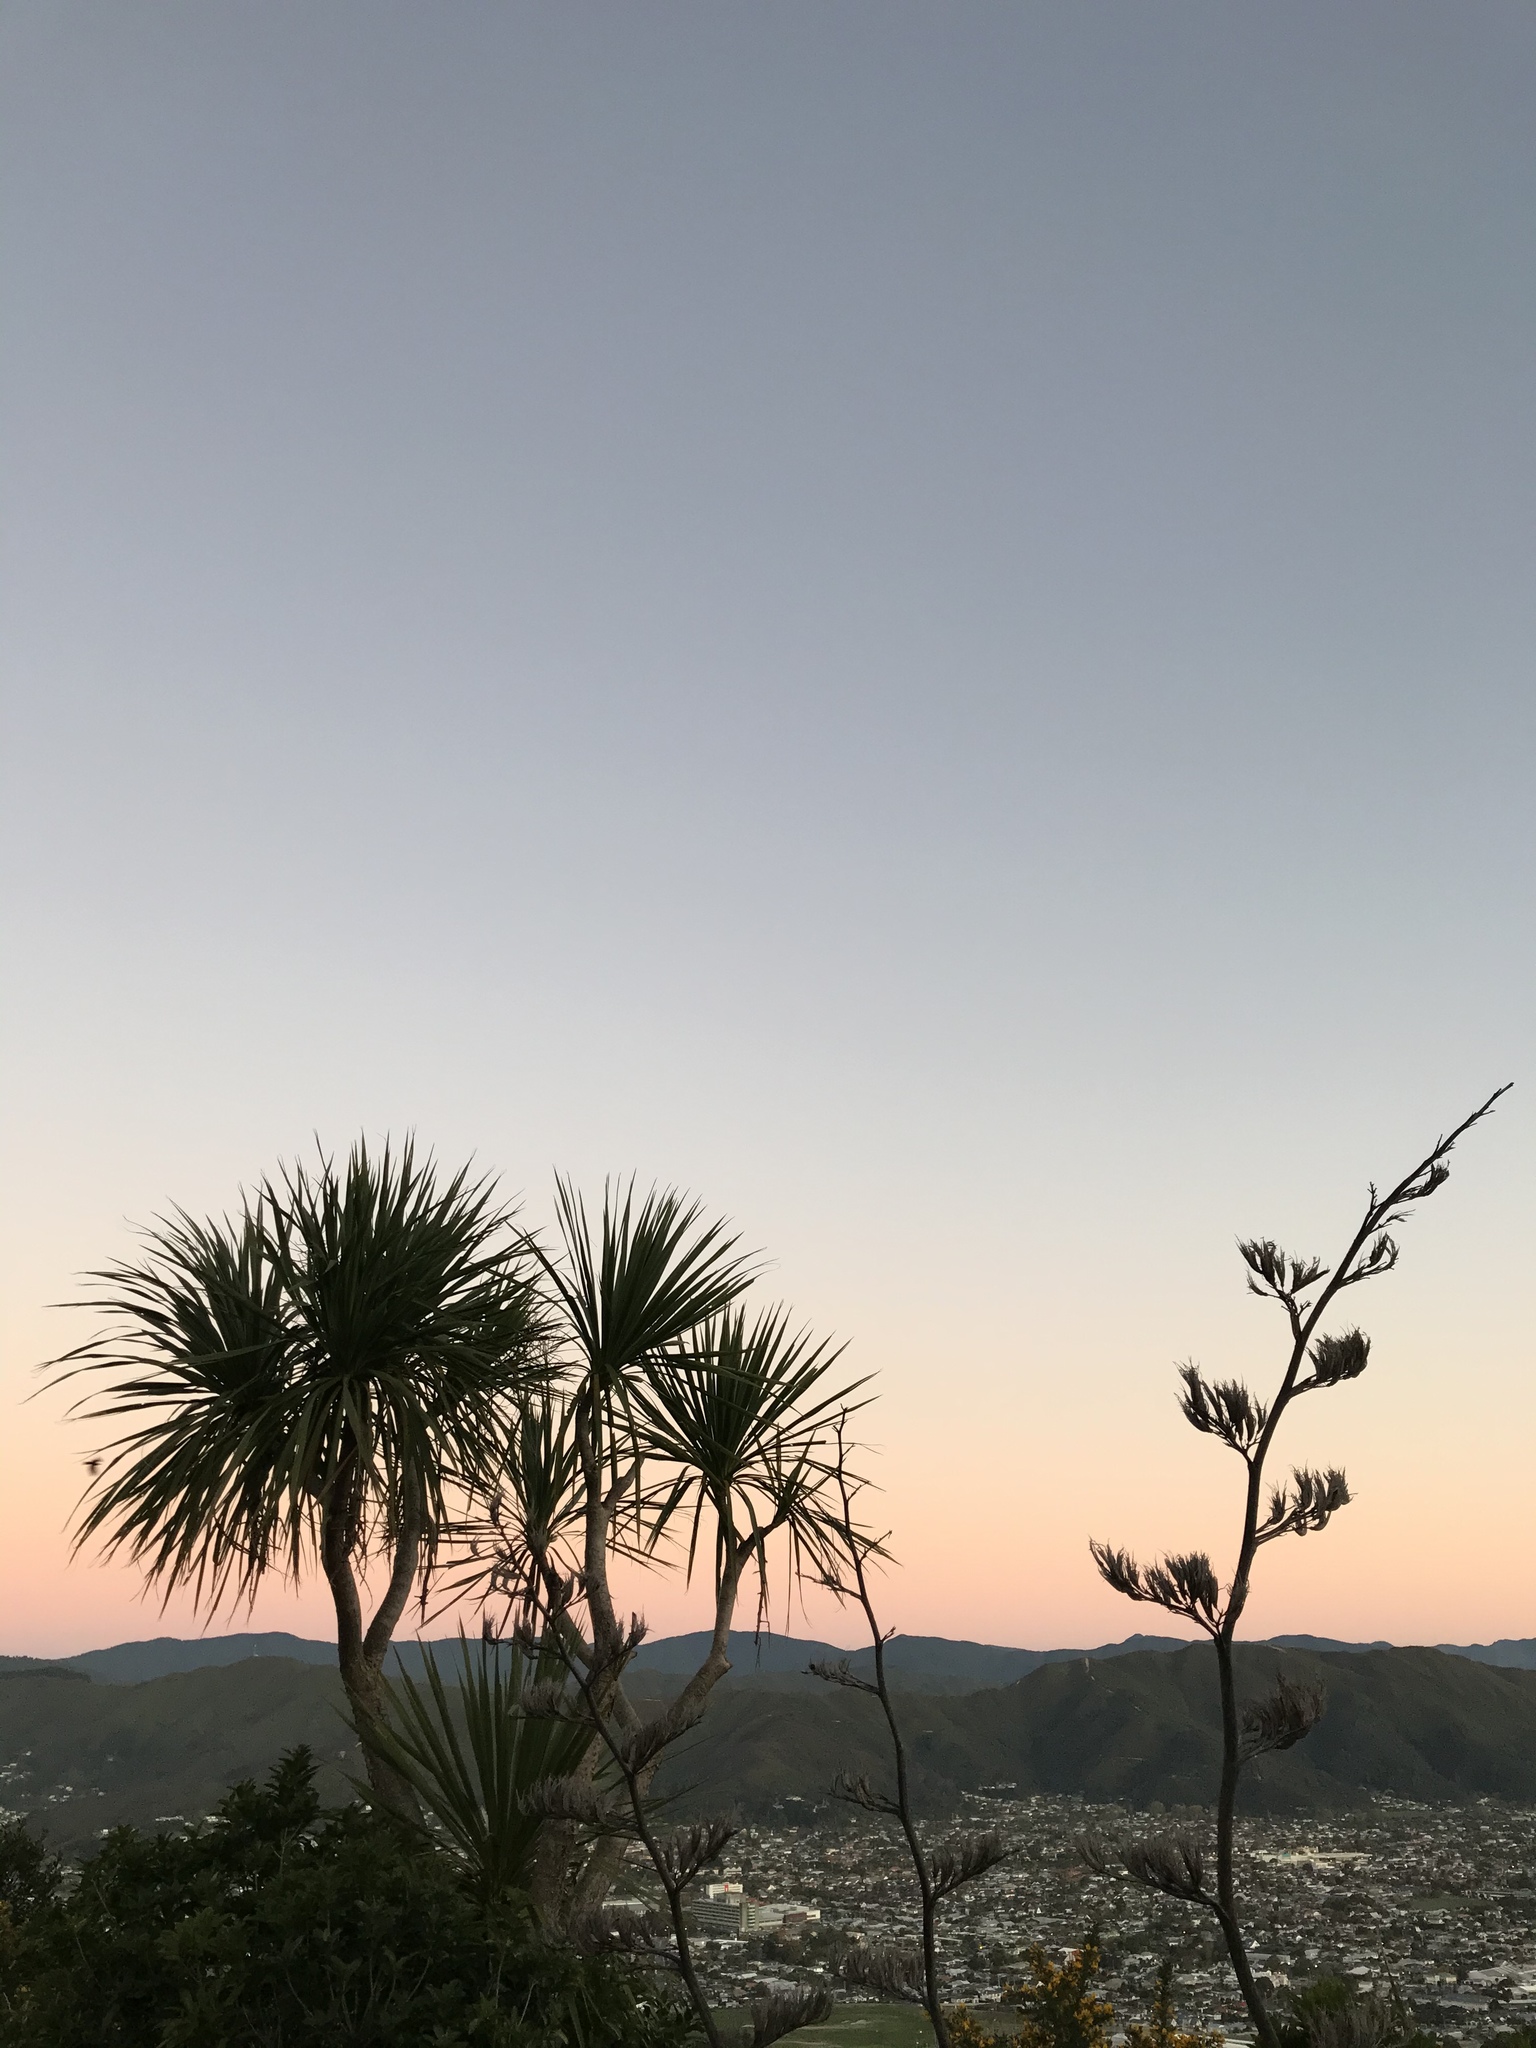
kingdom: Plantae
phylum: Tracheophyta
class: Liliopsida
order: Asparagales
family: Asparagaceae
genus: Cordyline
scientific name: Cordyline australis
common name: Cabbage-palm
